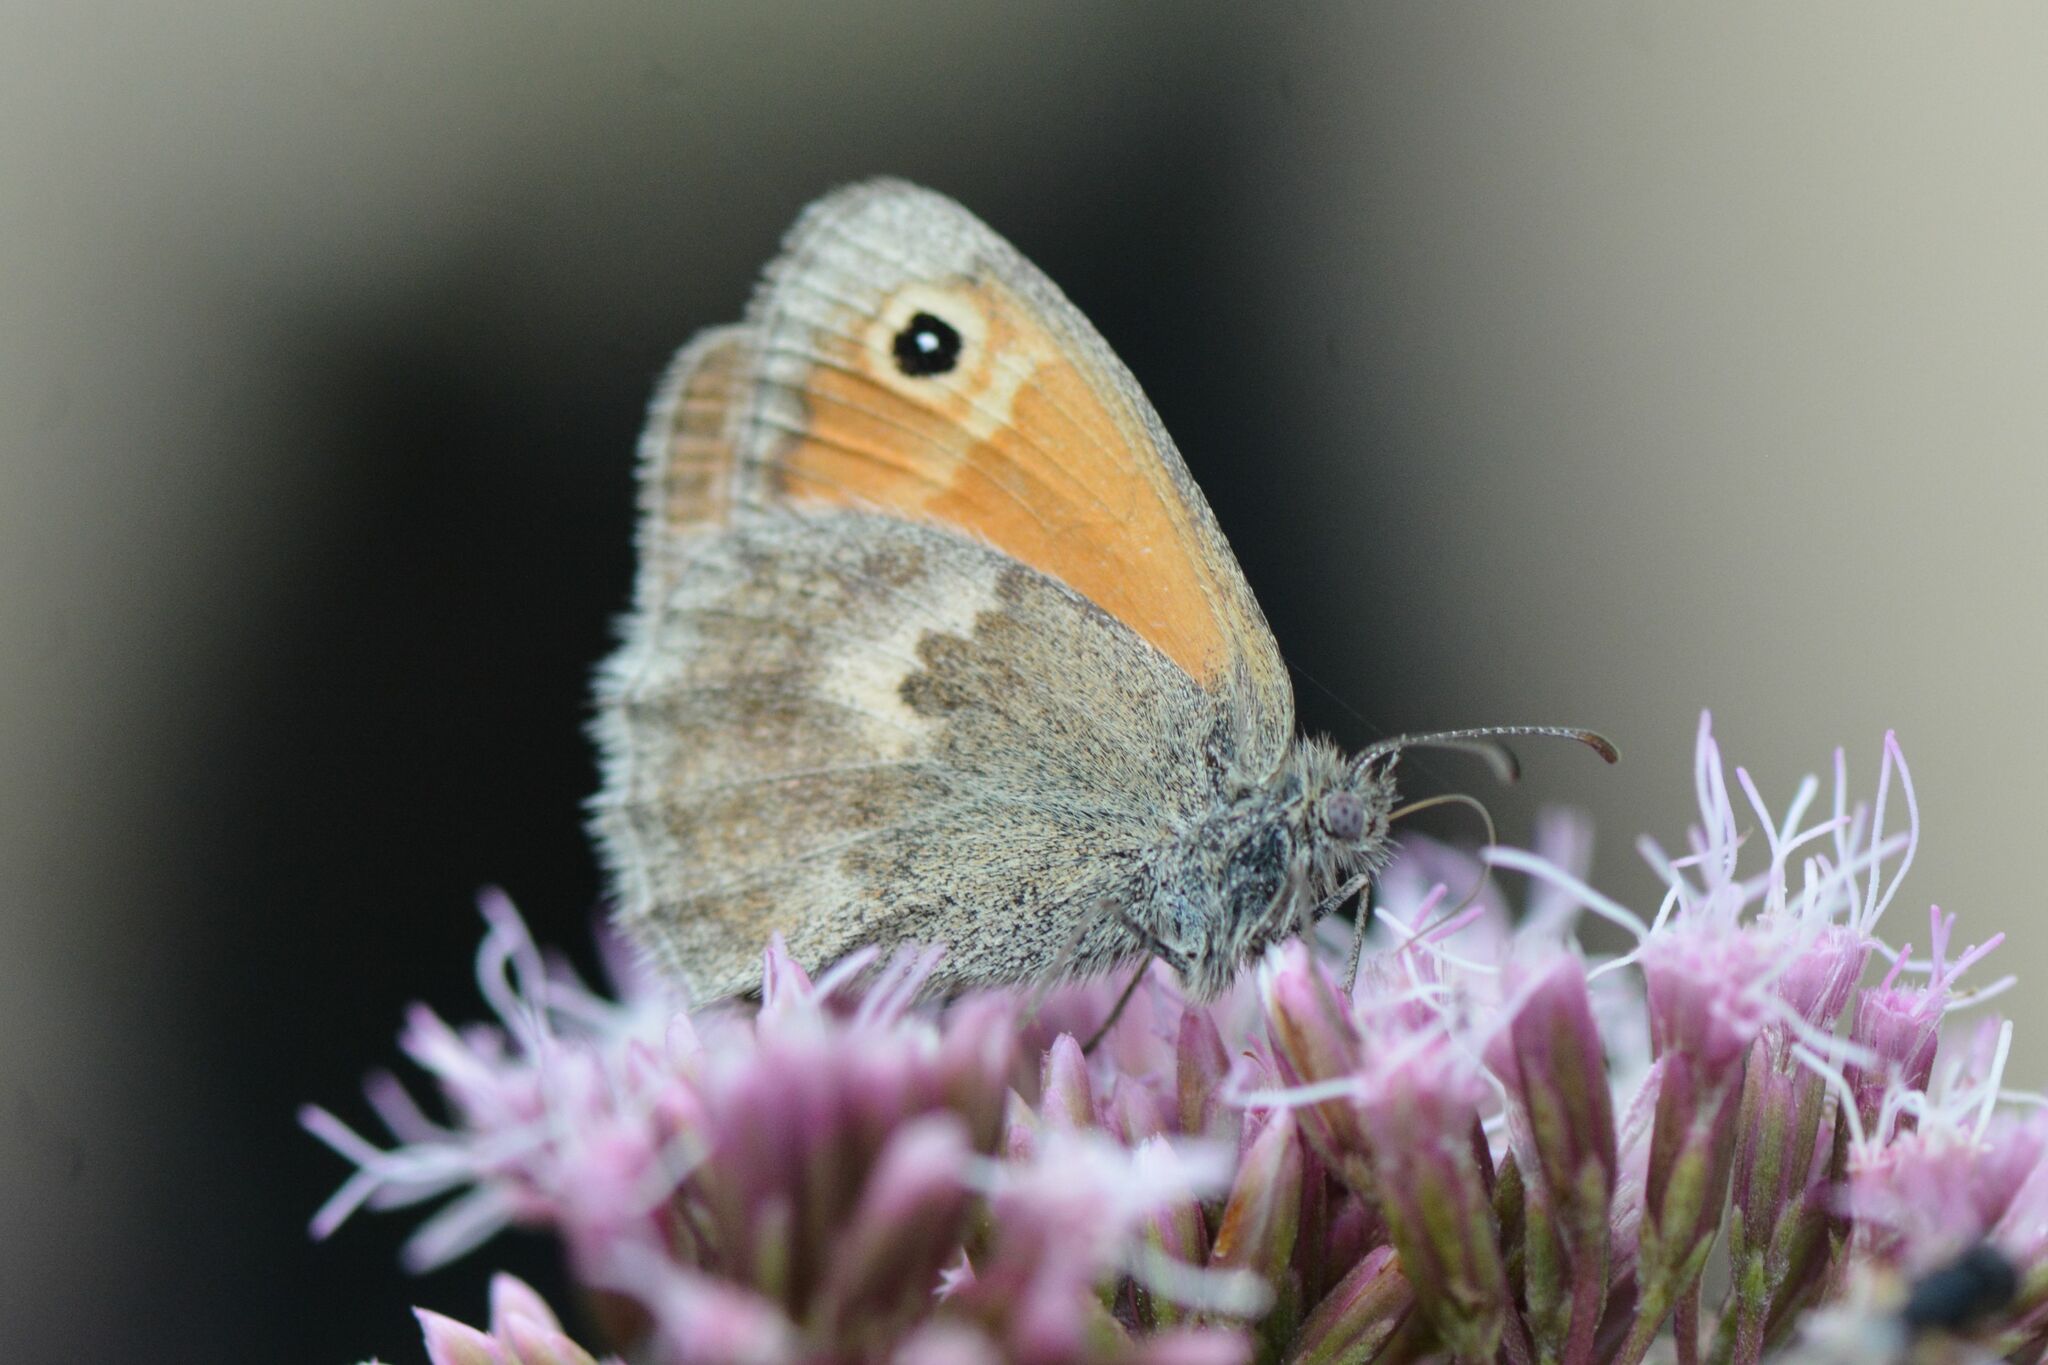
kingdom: Animalia
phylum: Arthropoda
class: Insecta
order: Lepidoptera
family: Nymphalidae
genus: Coenonympha
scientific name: Coenonympha pamphilus
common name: Small heath
